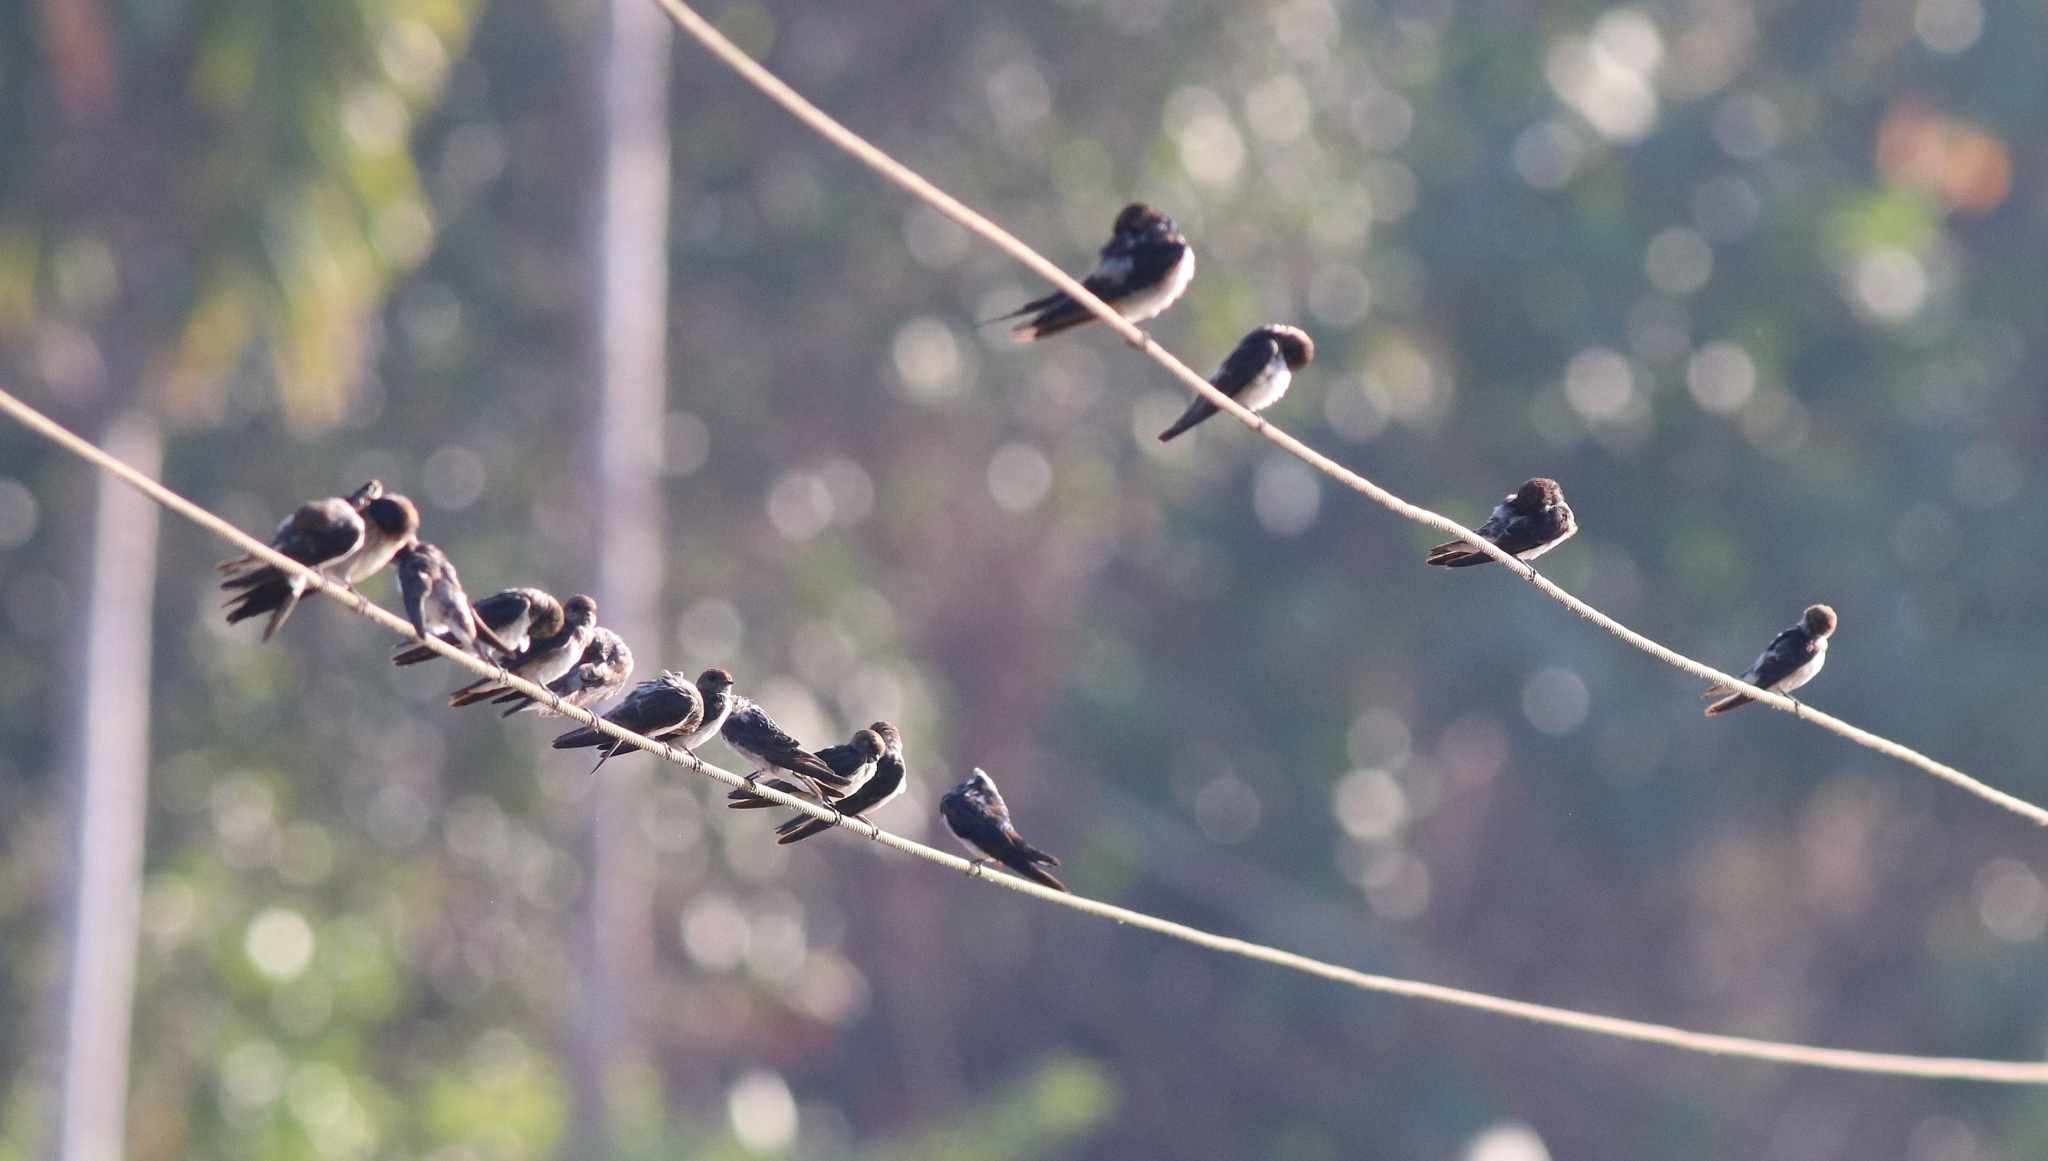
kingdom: Animalia
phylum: Chordata
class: Aves
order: Passeriformes
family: Hirundinidae
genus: Hirundo
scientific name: Hirundo smithii
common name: Wire-tailed swallow
